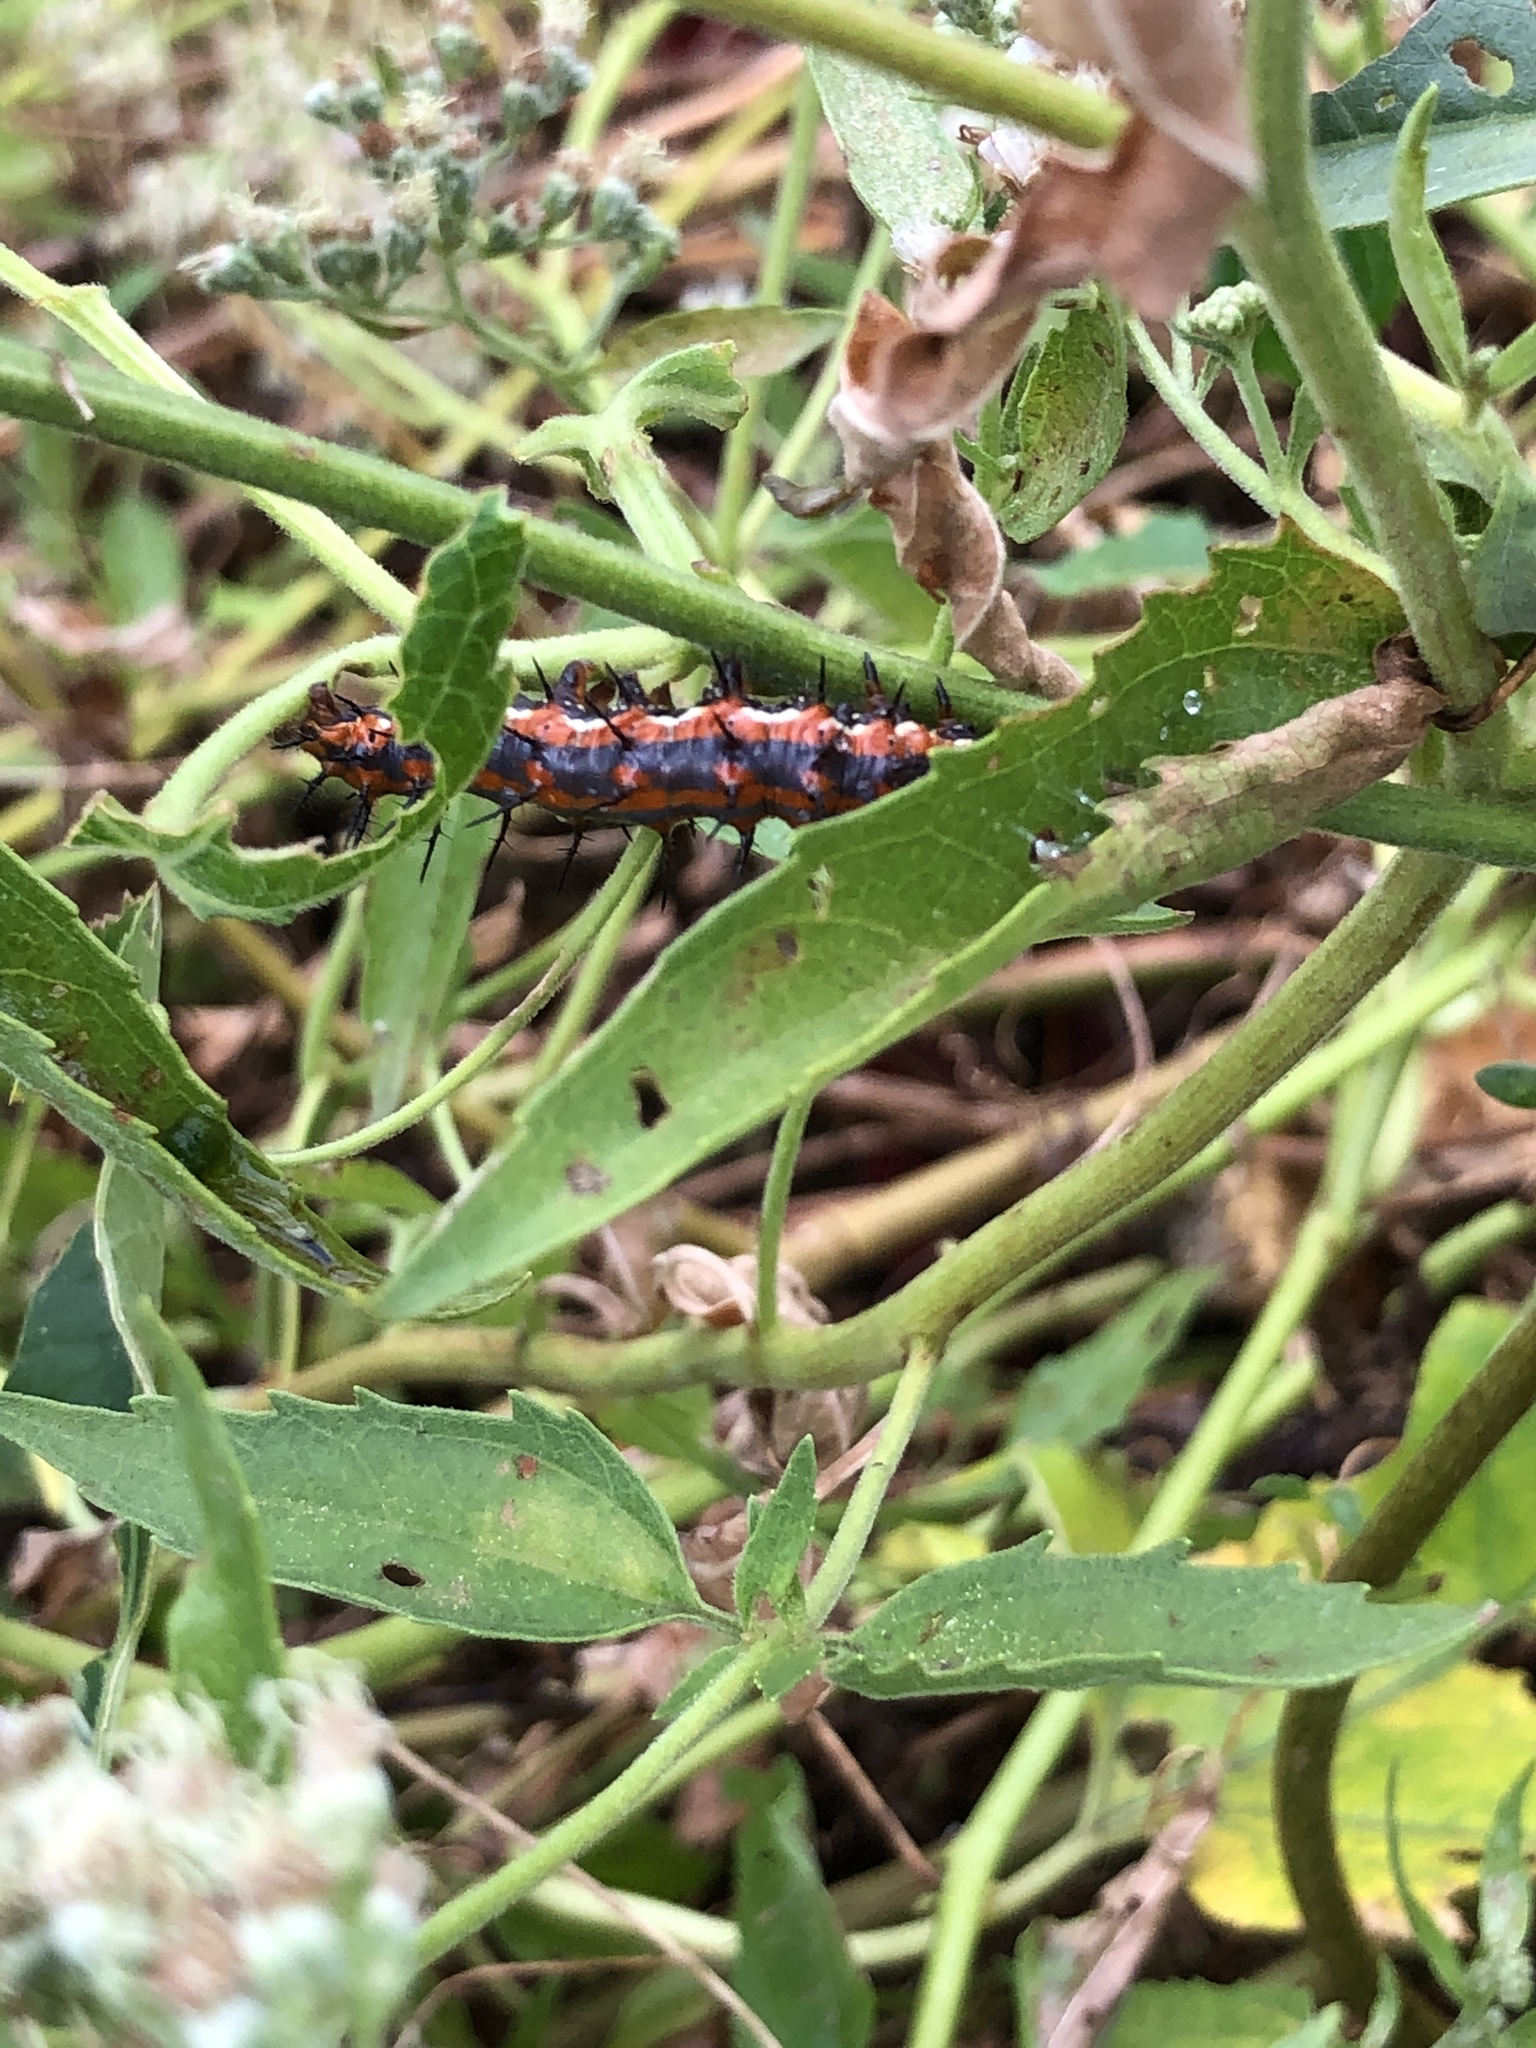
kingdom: Animalia
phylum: Arthropoda
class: Insecta
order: Lepidoptera
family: Nymphalidae
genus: Dione
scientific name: Dione vanillae
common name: Gulf fritillary
